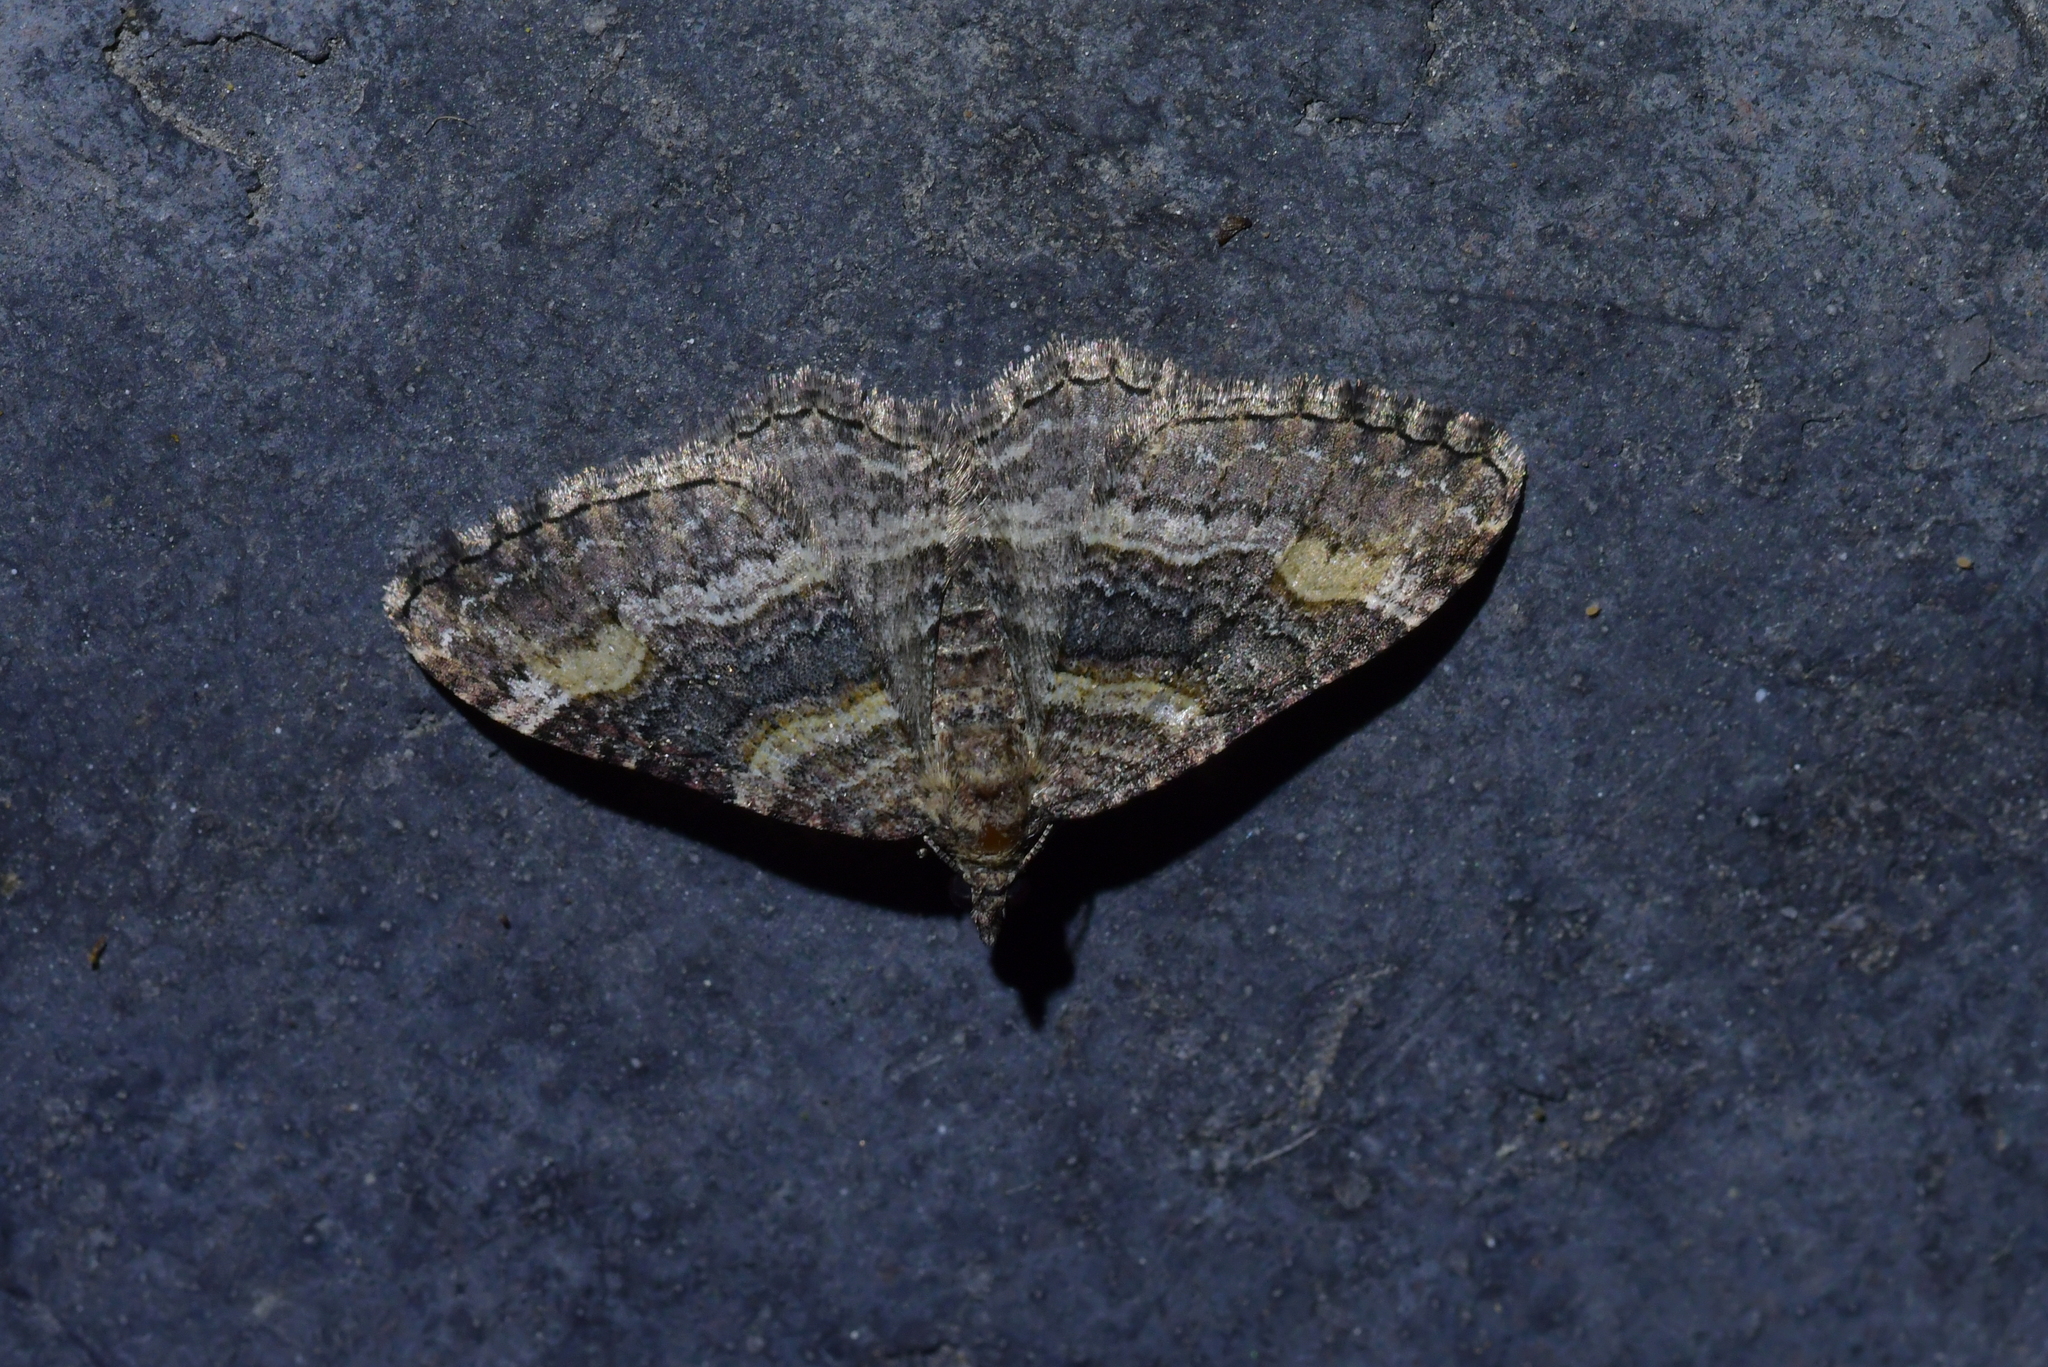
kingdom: Animalia
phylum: Arthropoda
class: Insecta
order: Lepidoptera
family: Geometridae
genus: Epyaxa
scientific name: Epyaxa lucidata
